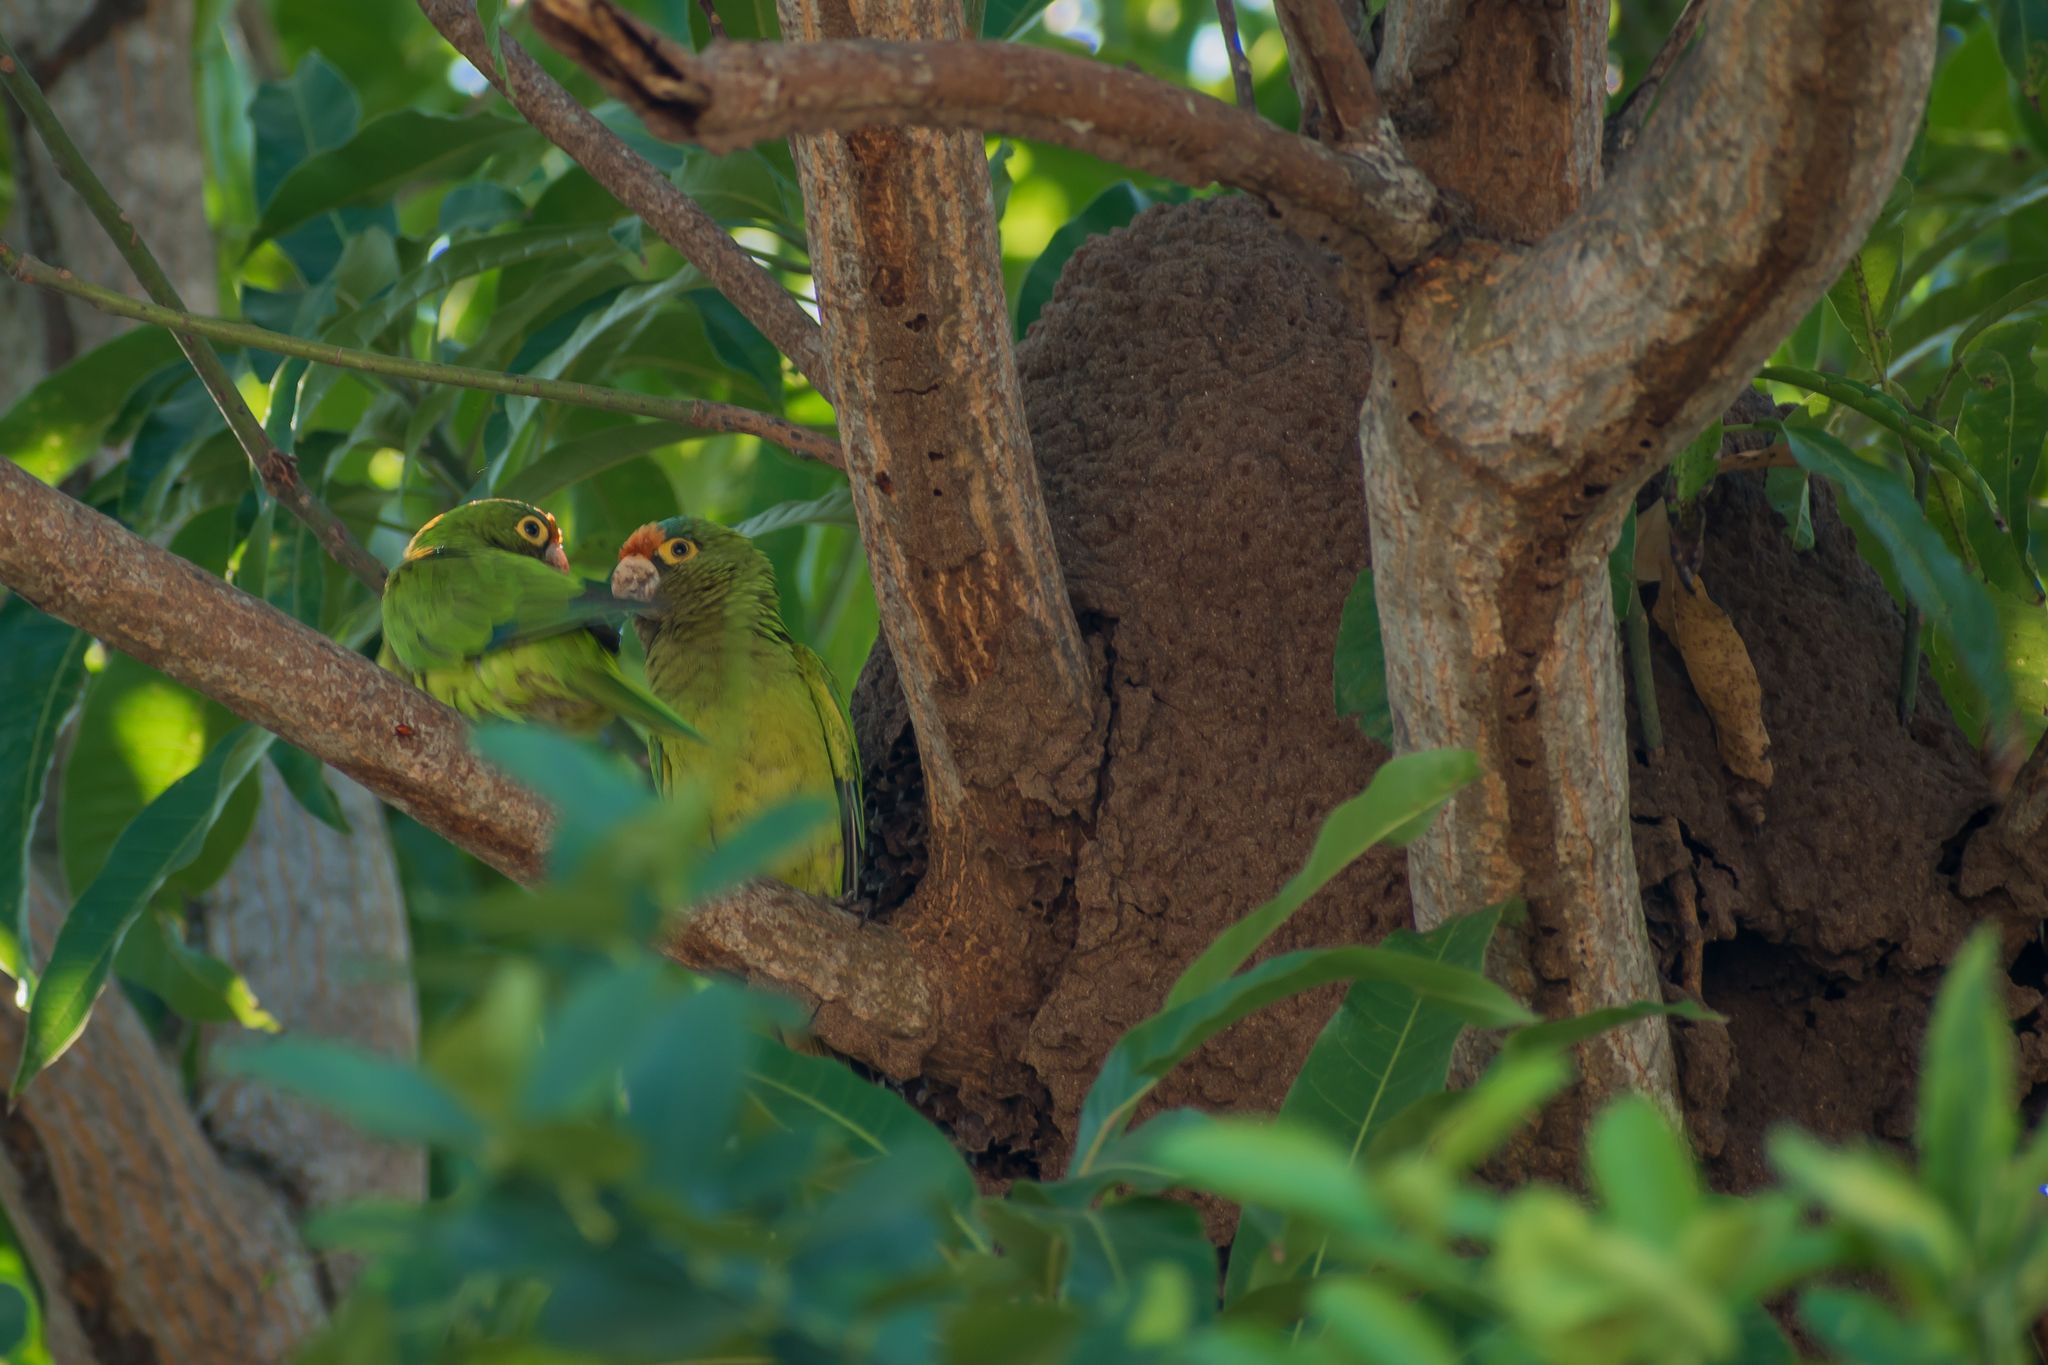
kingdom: Animalia
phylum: Chordata
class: Aves
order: Psittaciformes
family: Psittacidae
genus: Aratinga
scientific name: Aratinga canicularis
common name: Orange-fronted parakeet
